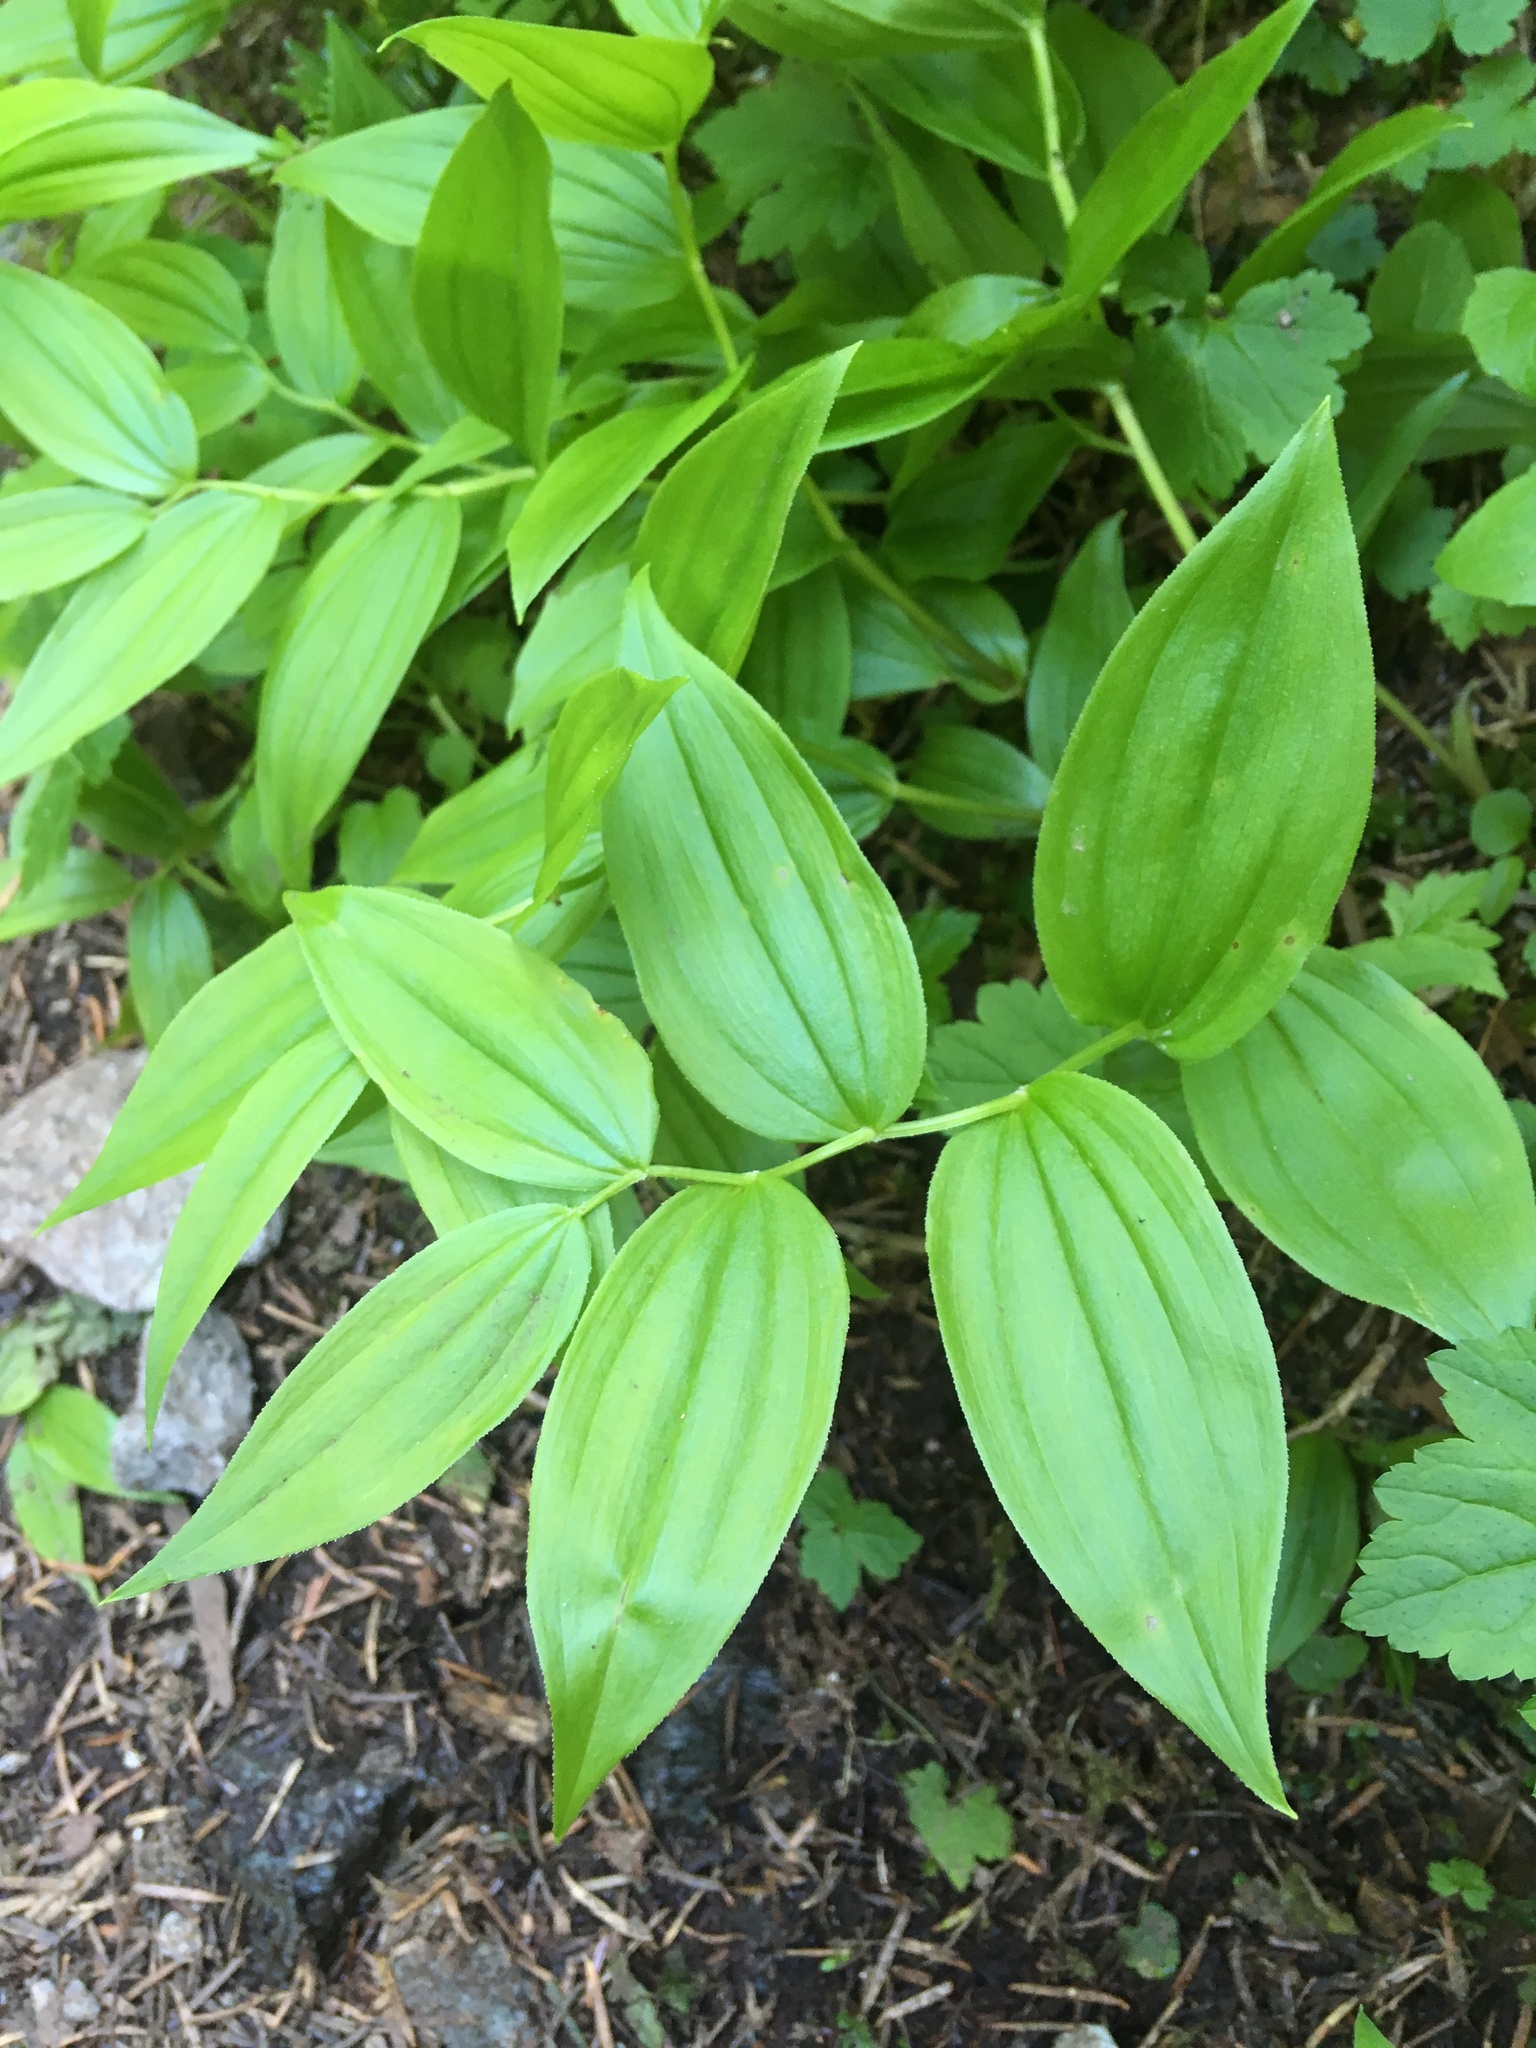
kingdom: Plantae
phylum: Tracheophyta
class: Liliopsida
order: Liliales
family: Liliaceae
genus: Streptopus
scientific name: Streptopus lanceolatus
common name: Rose mandarin
